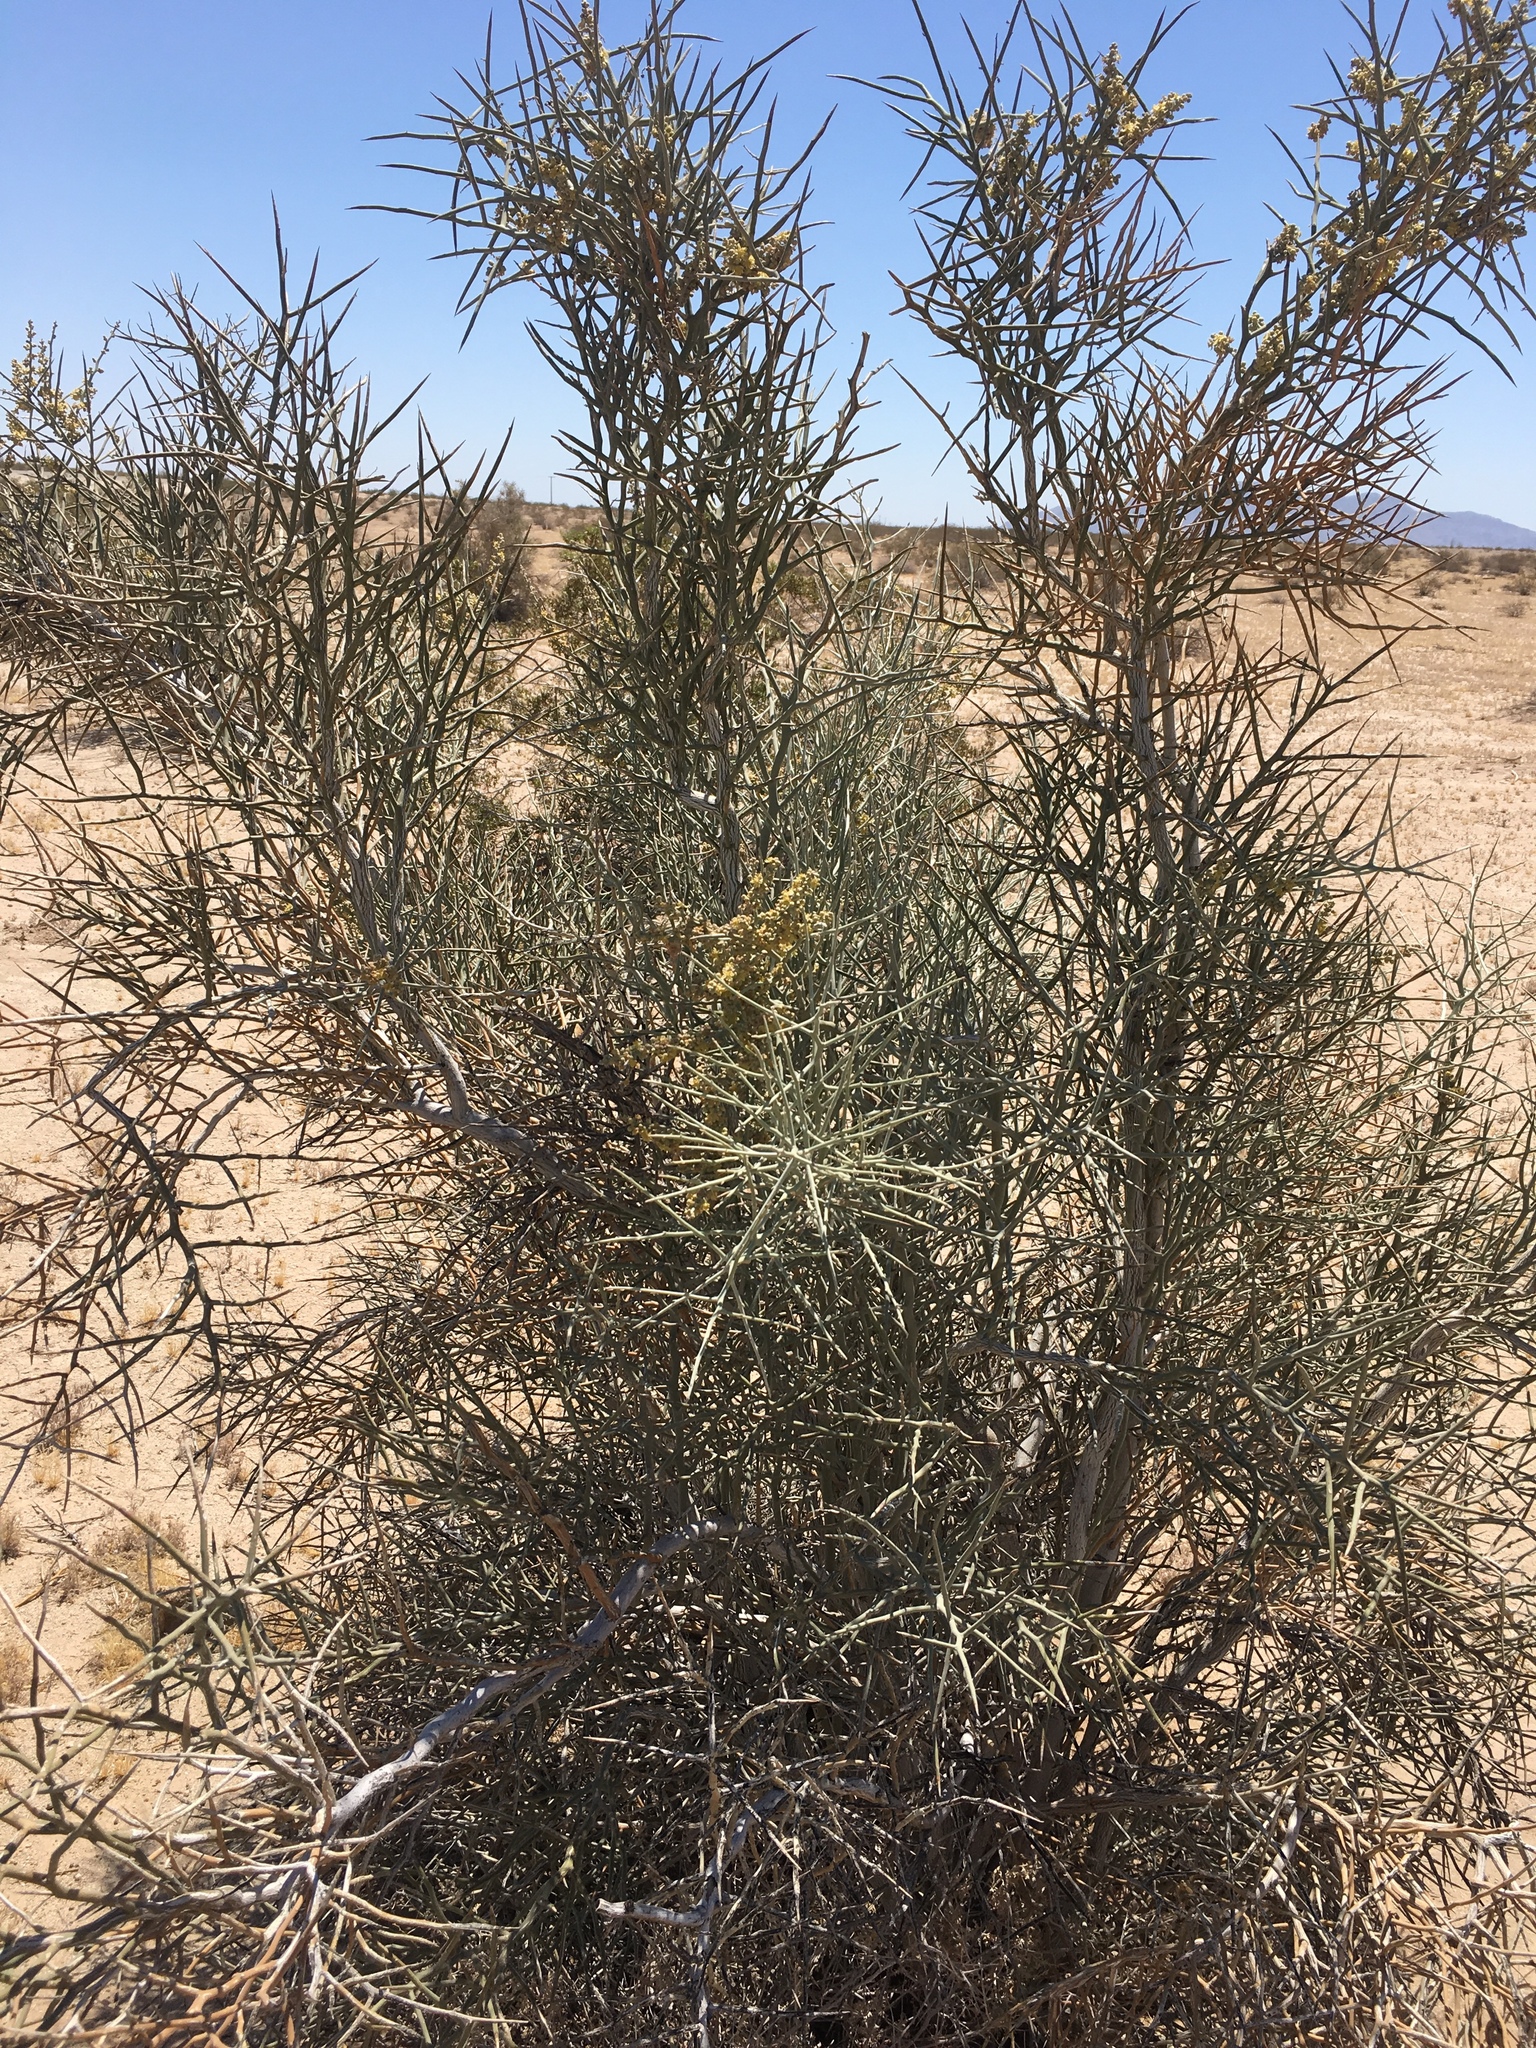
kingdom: Plantae
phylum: Tracheophyta
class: Magnoliopsida
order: Sapindales
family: Simaroubaceae
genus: Holacantha
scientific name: Holacantha emoryi
